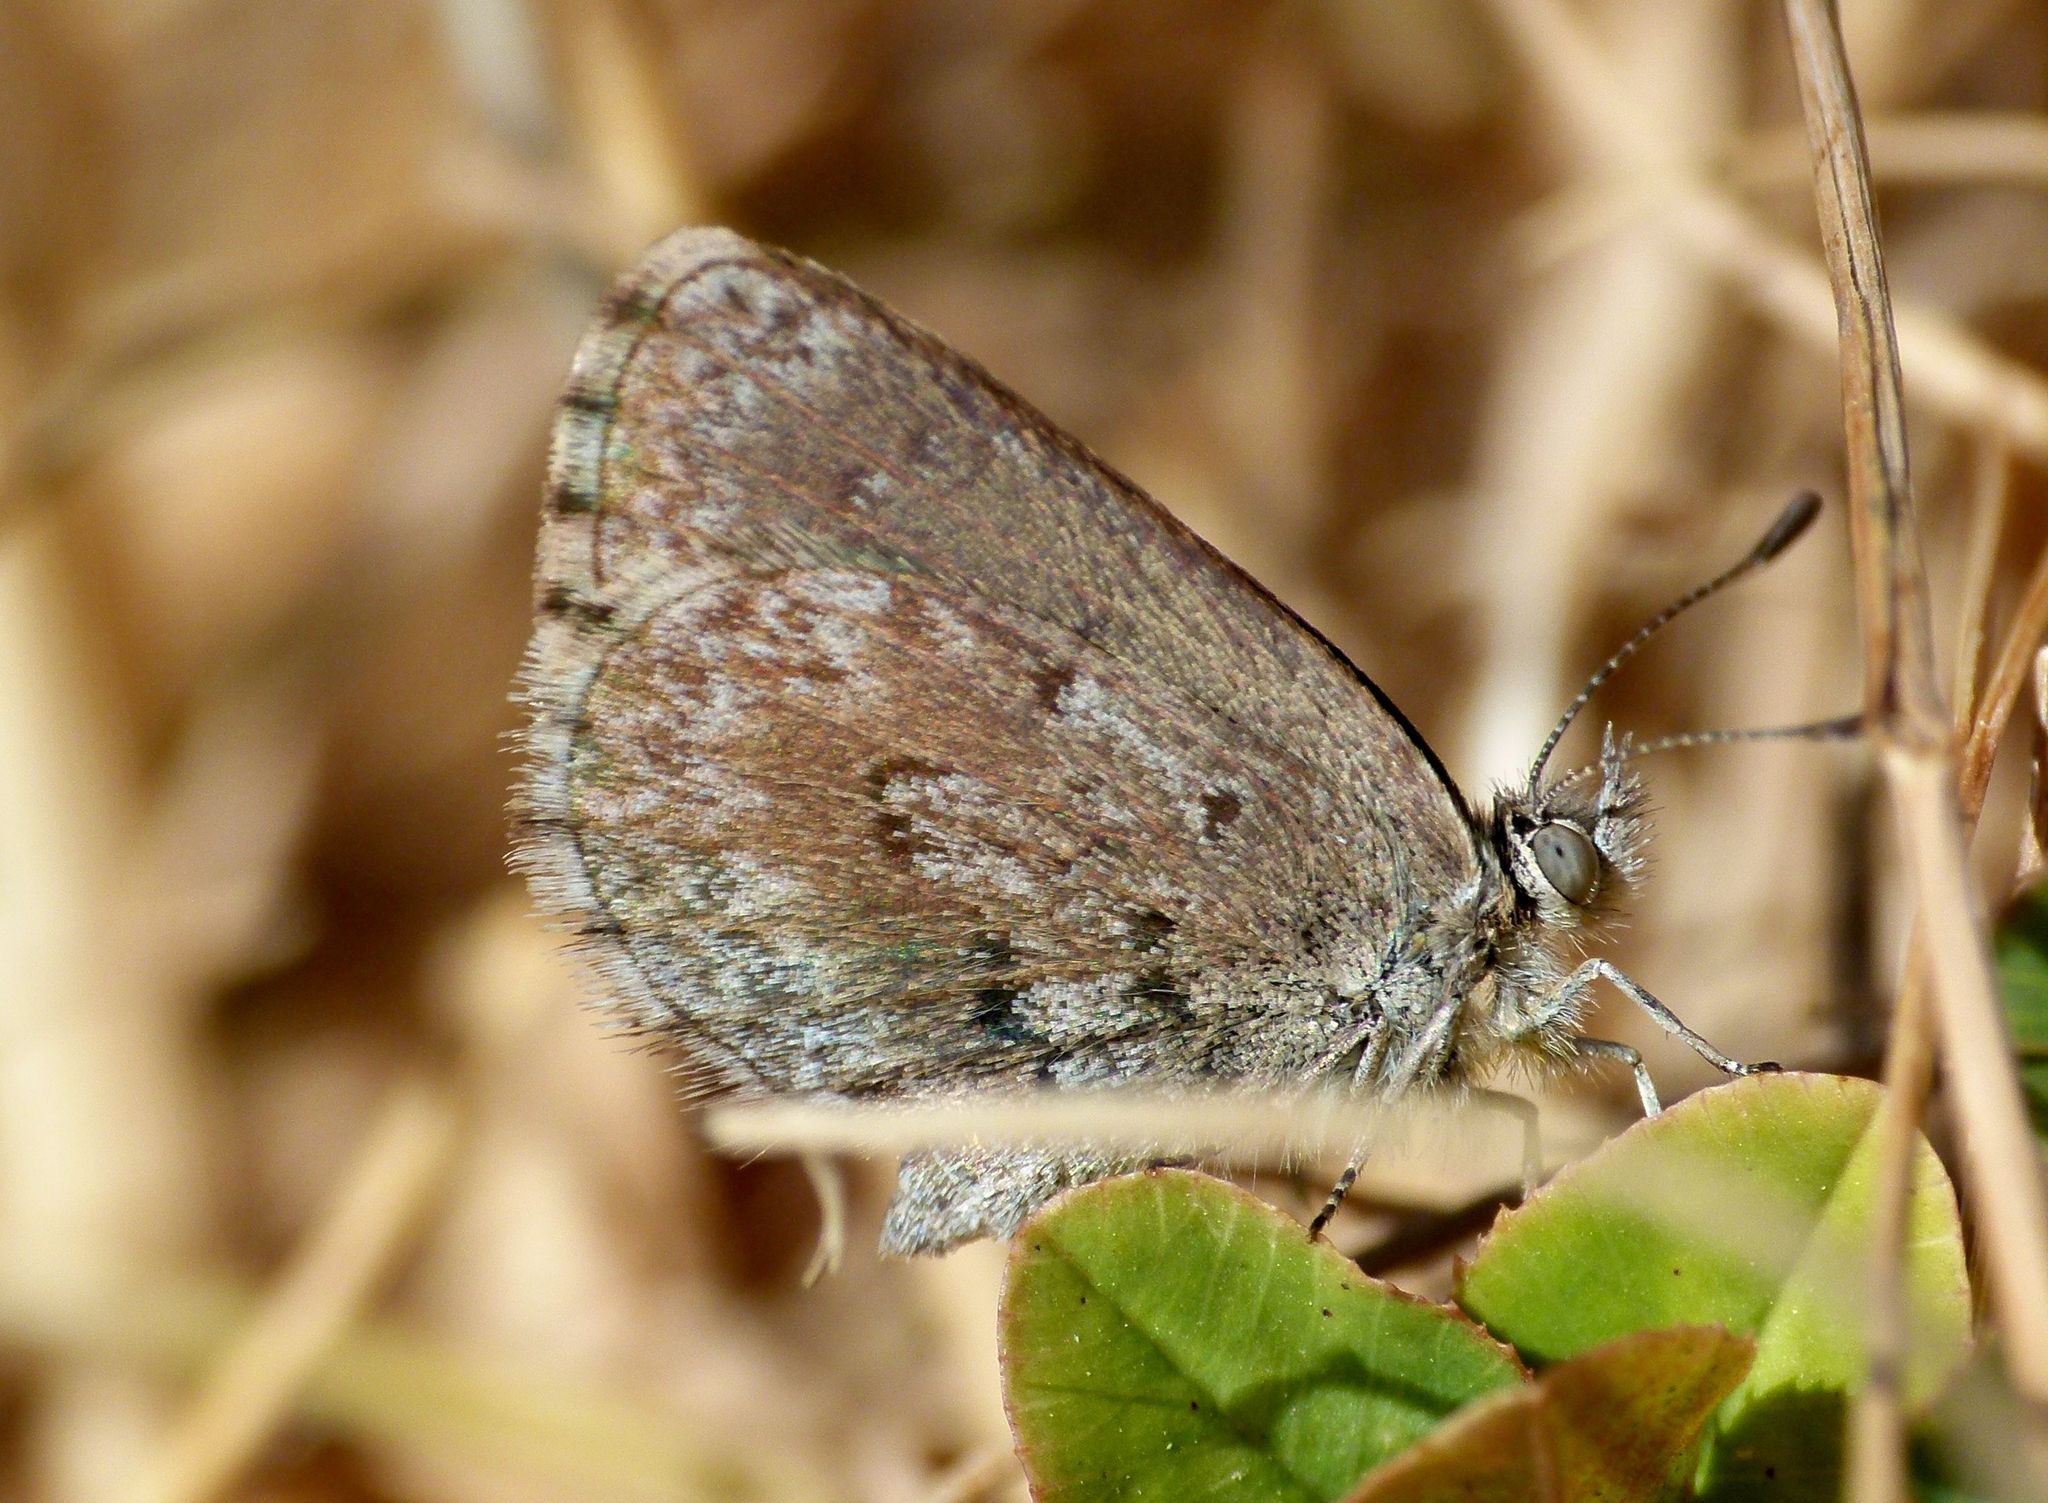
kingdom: Animalia
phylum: Arthropoda
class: Insecta
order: Lepidoptera
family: Lycaenidae
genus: Zizina
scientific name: Zizina oxleyi
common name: Southern blue
